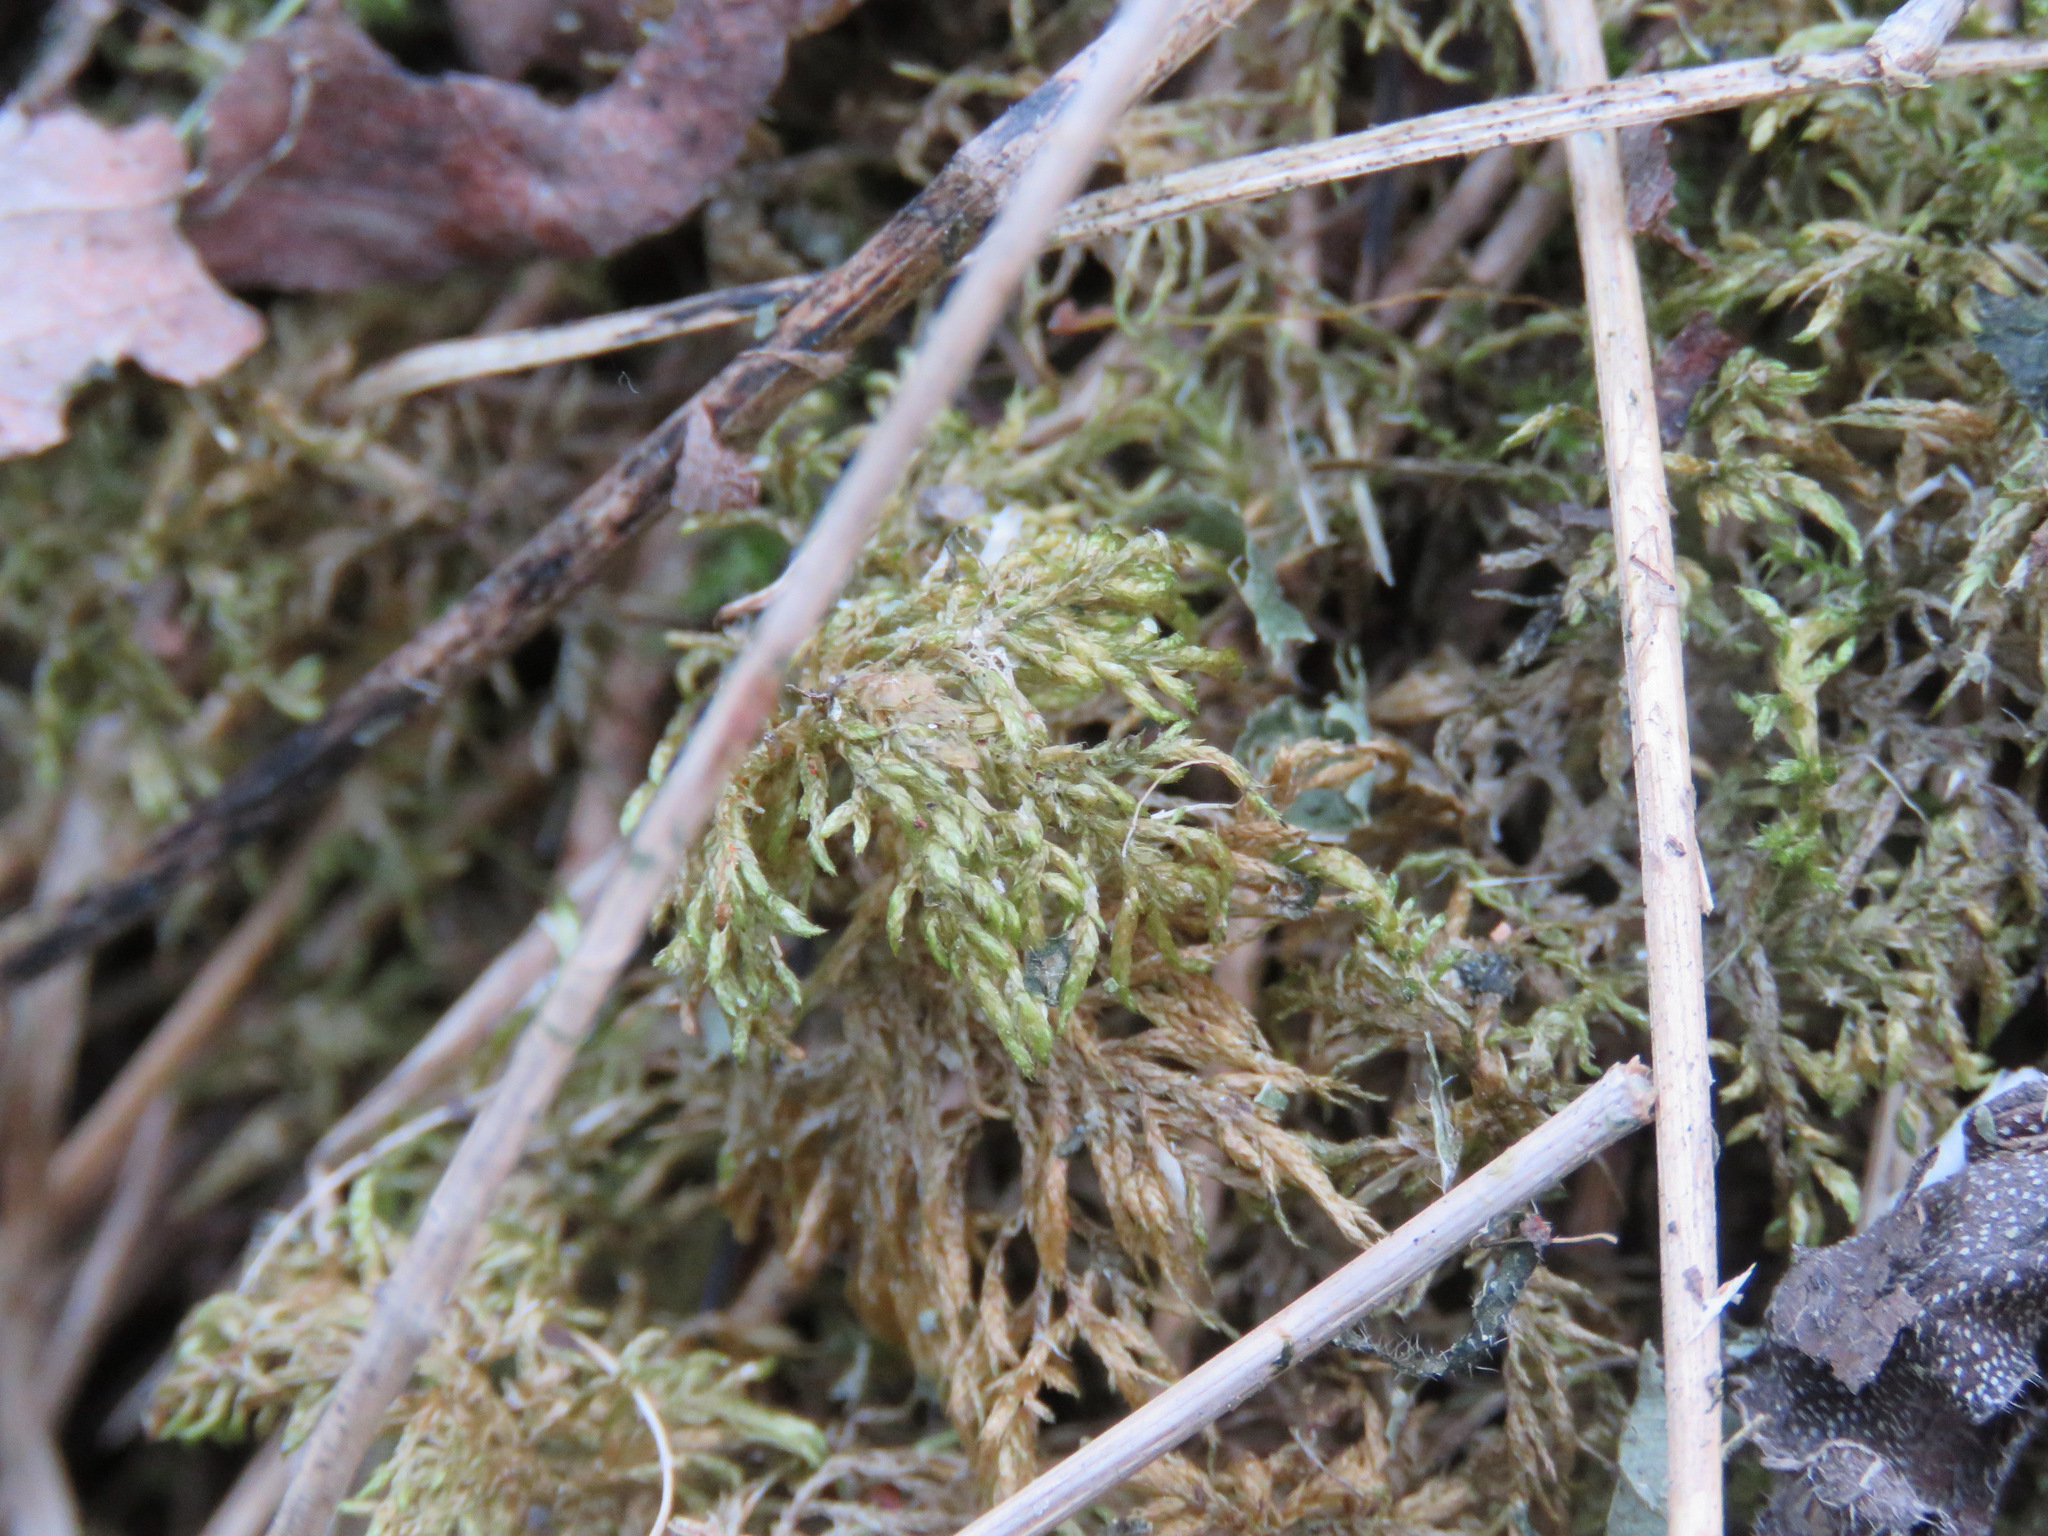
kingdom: Plantae
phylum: Bryophyta
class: Bryopsida
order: Hypnales
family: Hylocomiaceae
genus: Hylocomium
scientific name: Hylocomium splendens
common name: Stairstep moss
